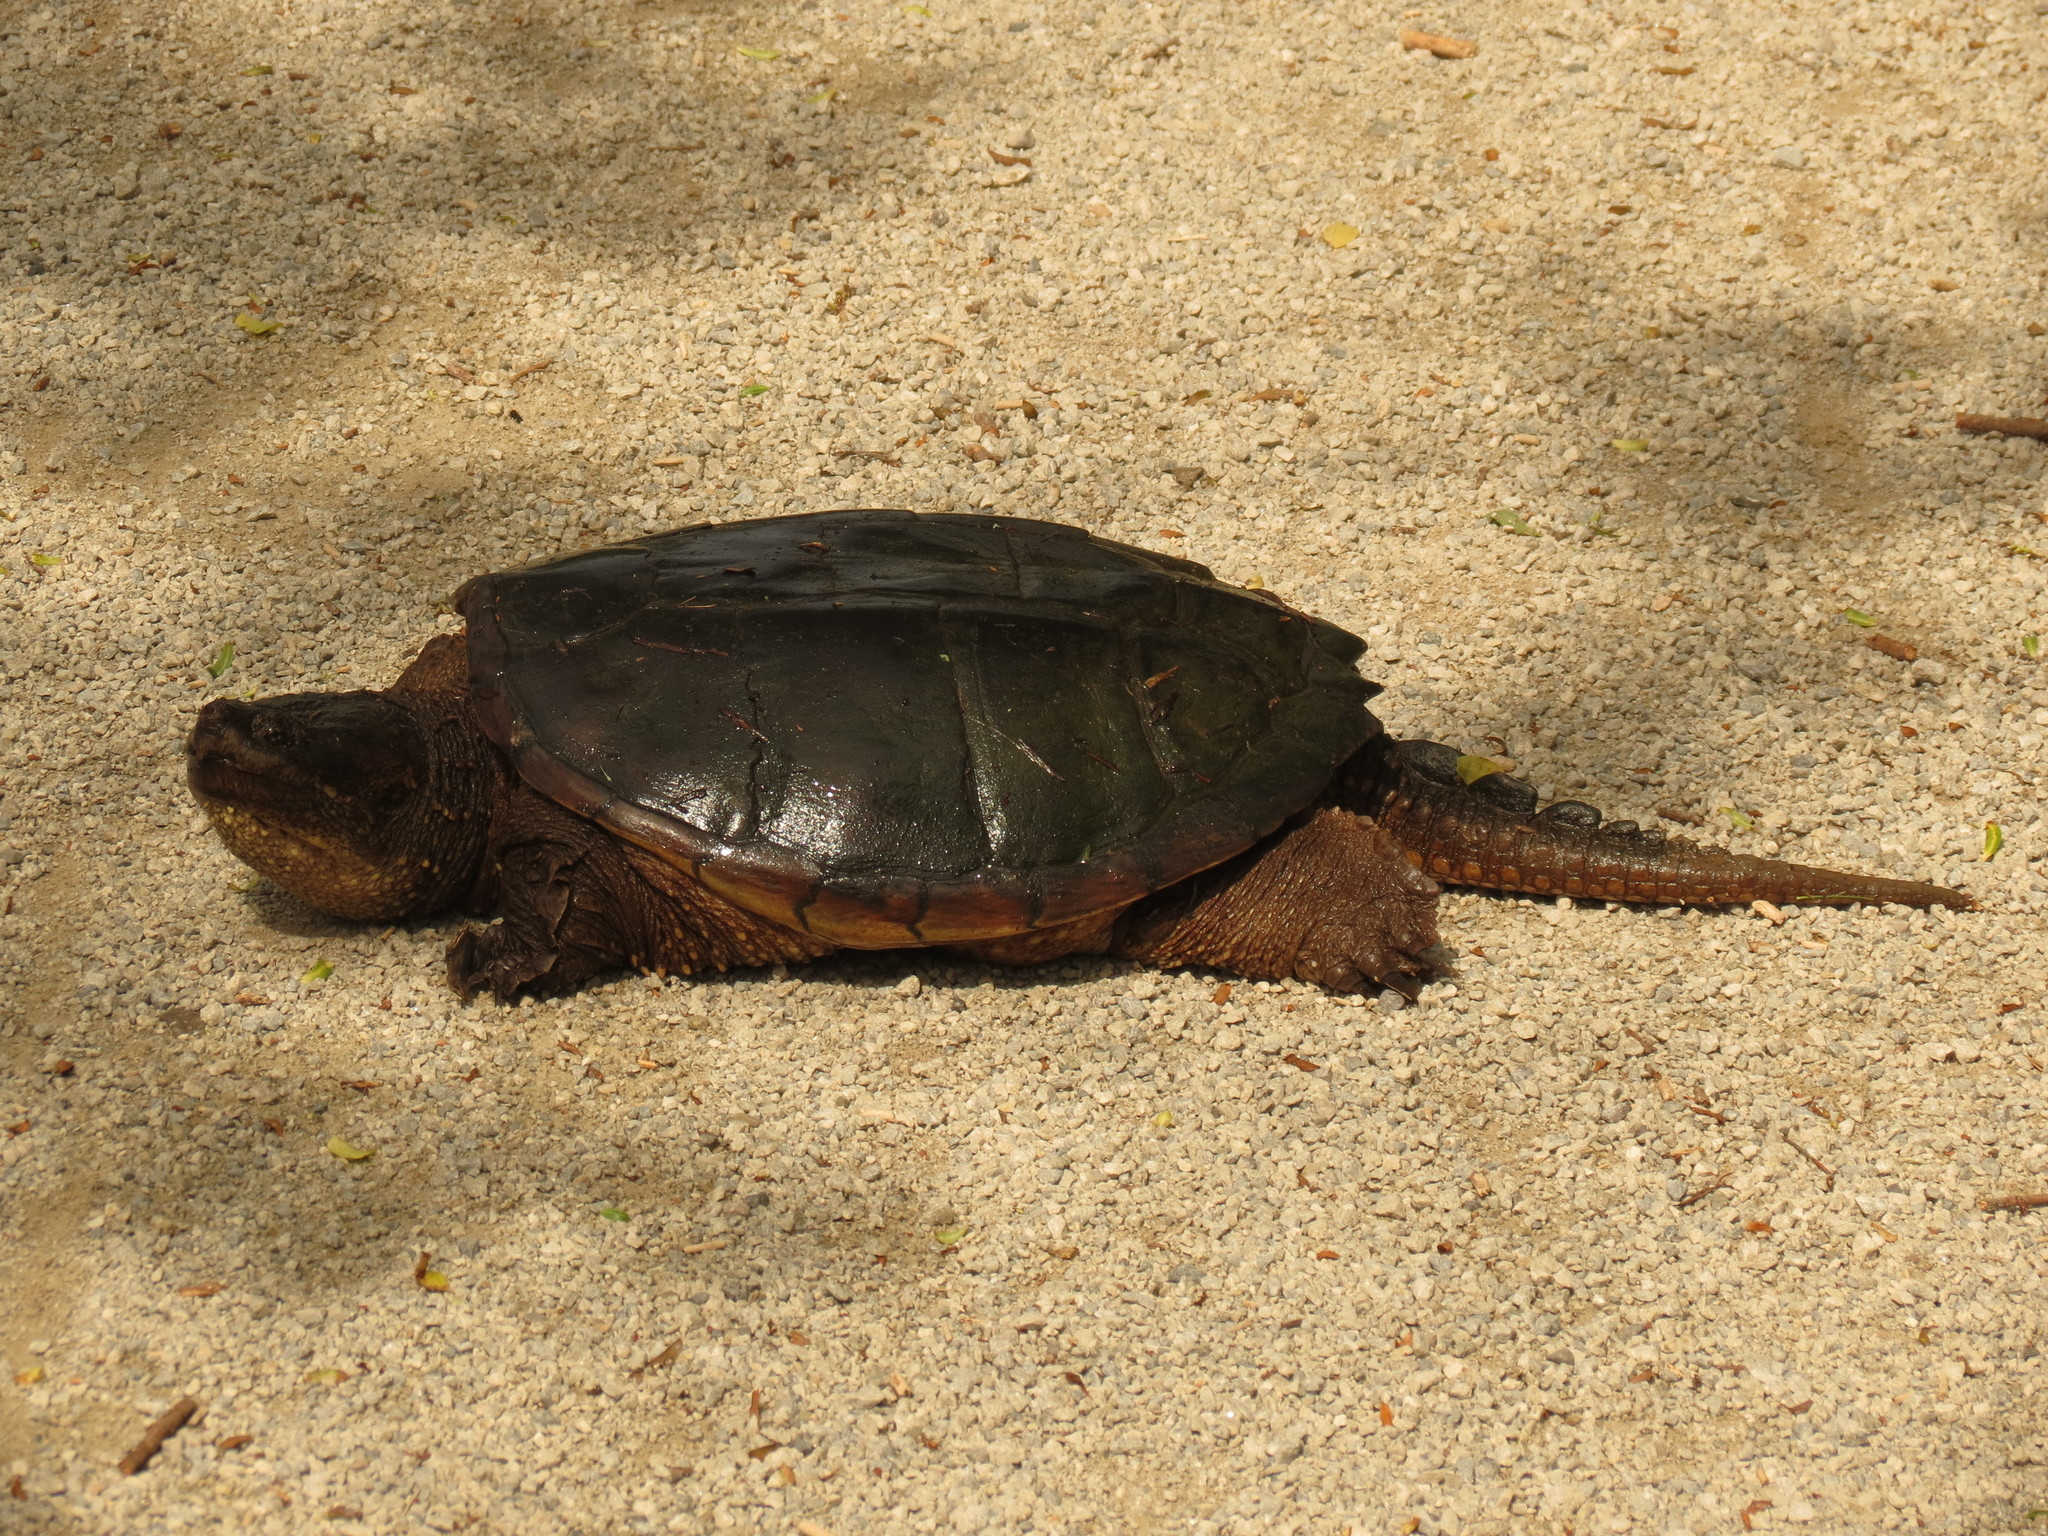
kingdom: Animalia
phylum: Chordata
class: Testudines
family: Chelydridae
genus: Chelydra
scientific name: Chelydra serpentina
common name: Common snapping turtle
